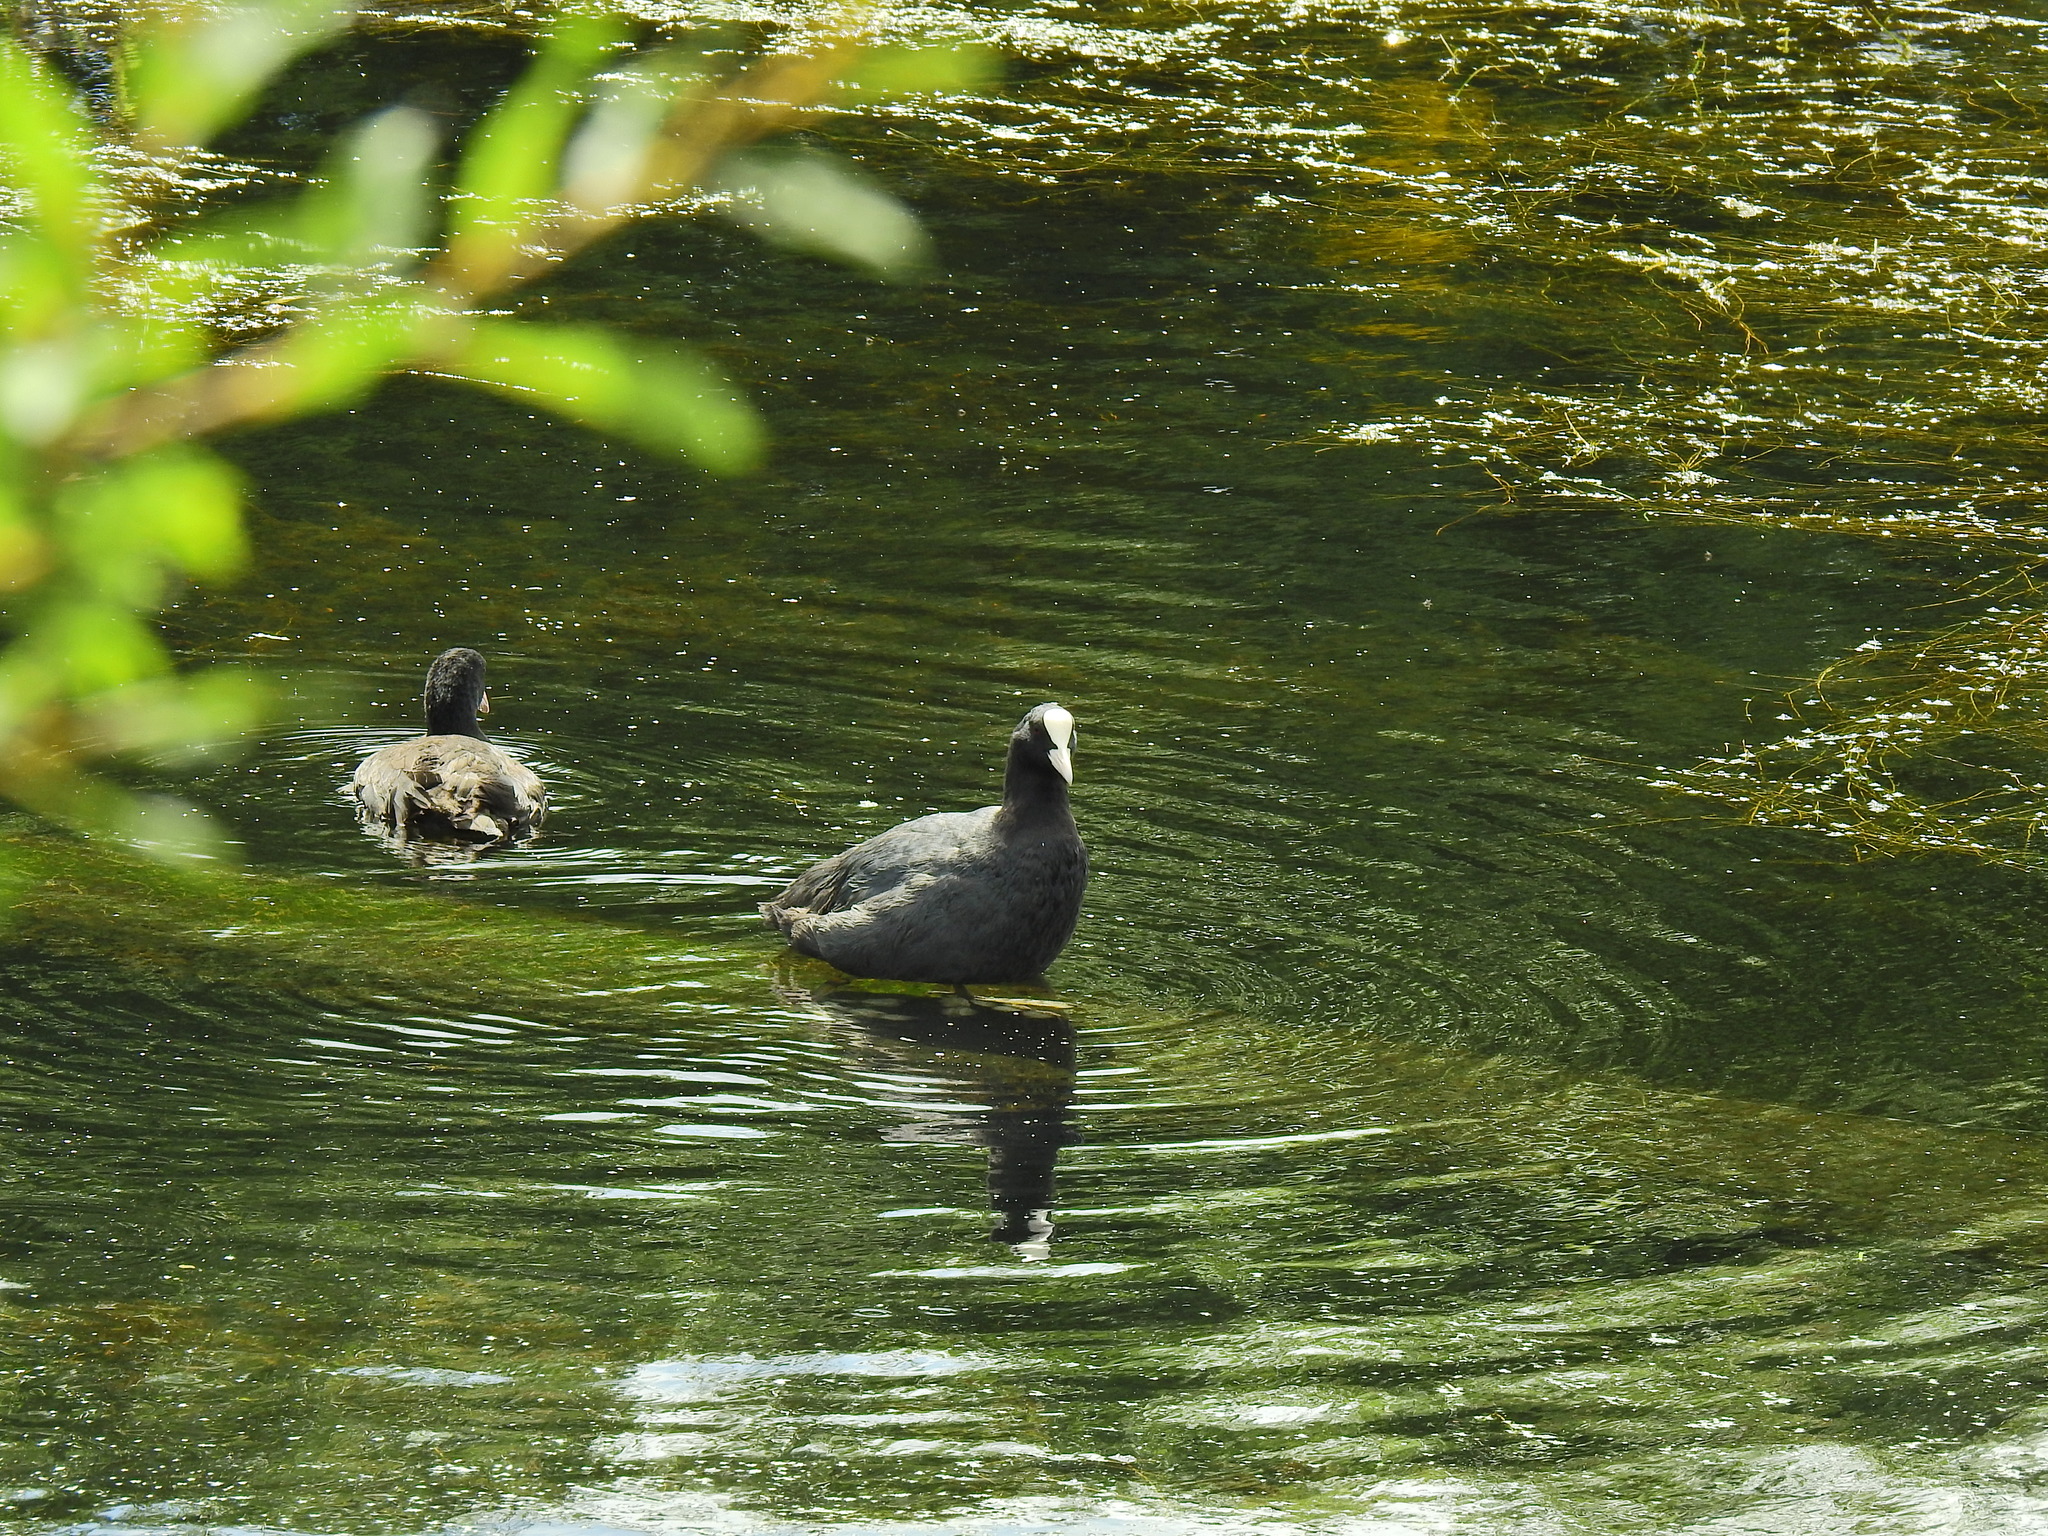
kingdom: Animalia
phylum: Chordata
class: Aves
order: Gruiformes
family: Rallidae
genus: Fulica
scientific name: Fulica atra
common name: Eurasian coot
